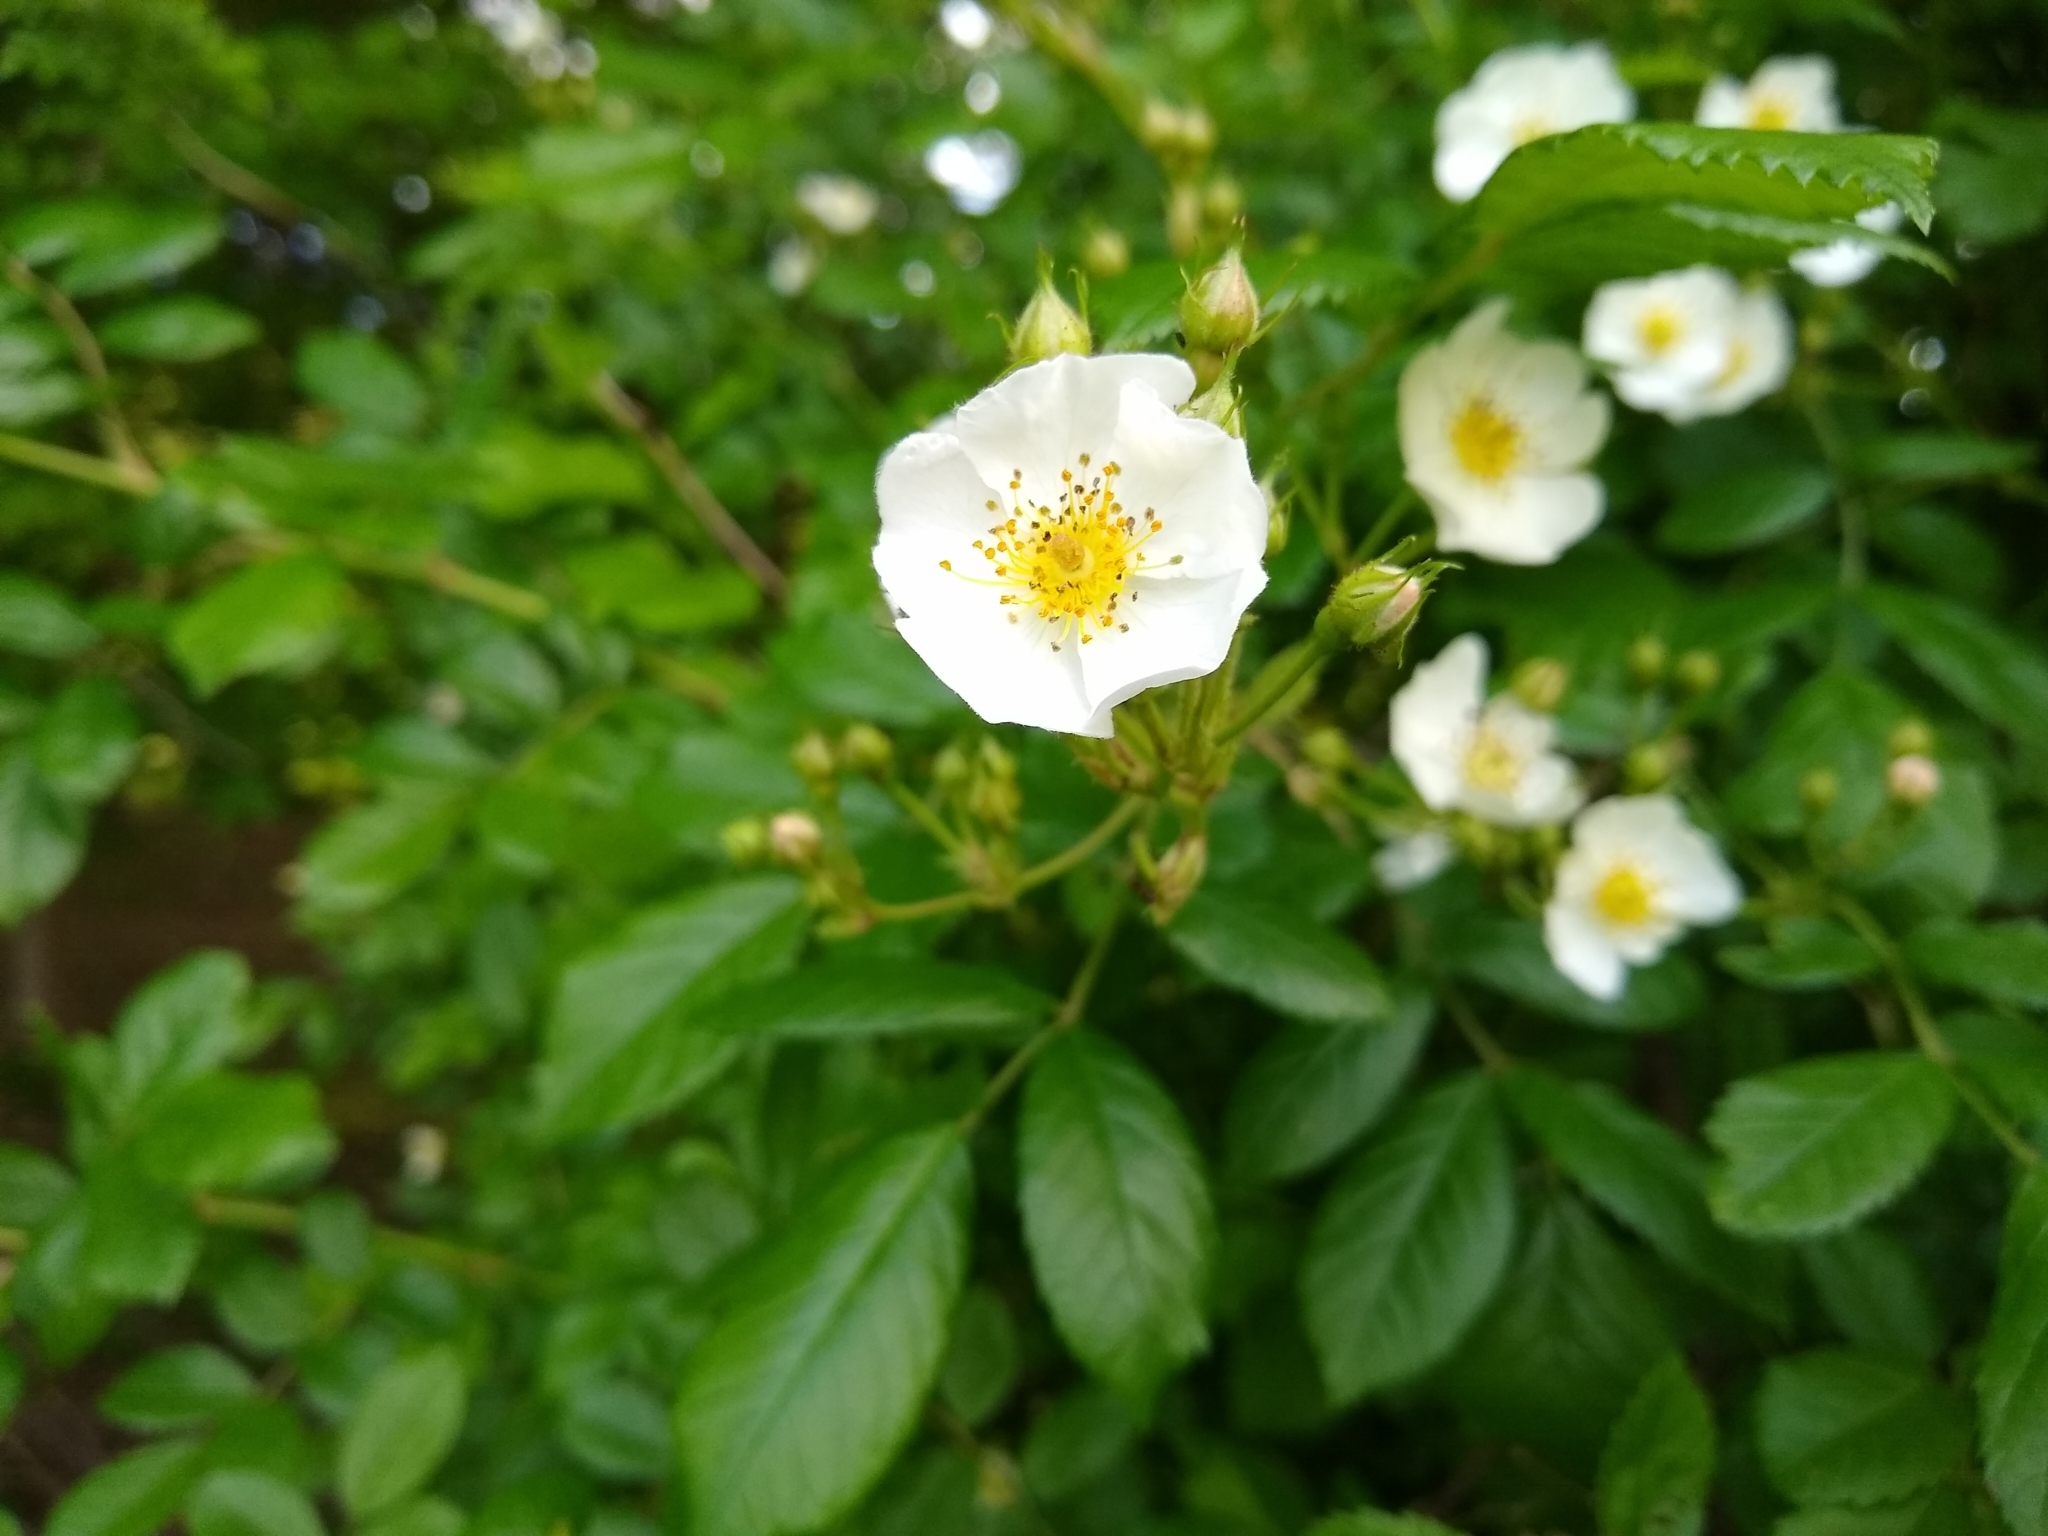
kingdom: Plantae
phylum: Tracheophyta
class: Magnoliopsida
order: Rosales
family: Rosaceae
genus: Rosa
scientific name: Rosa multiflora
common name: Multiflora rose
